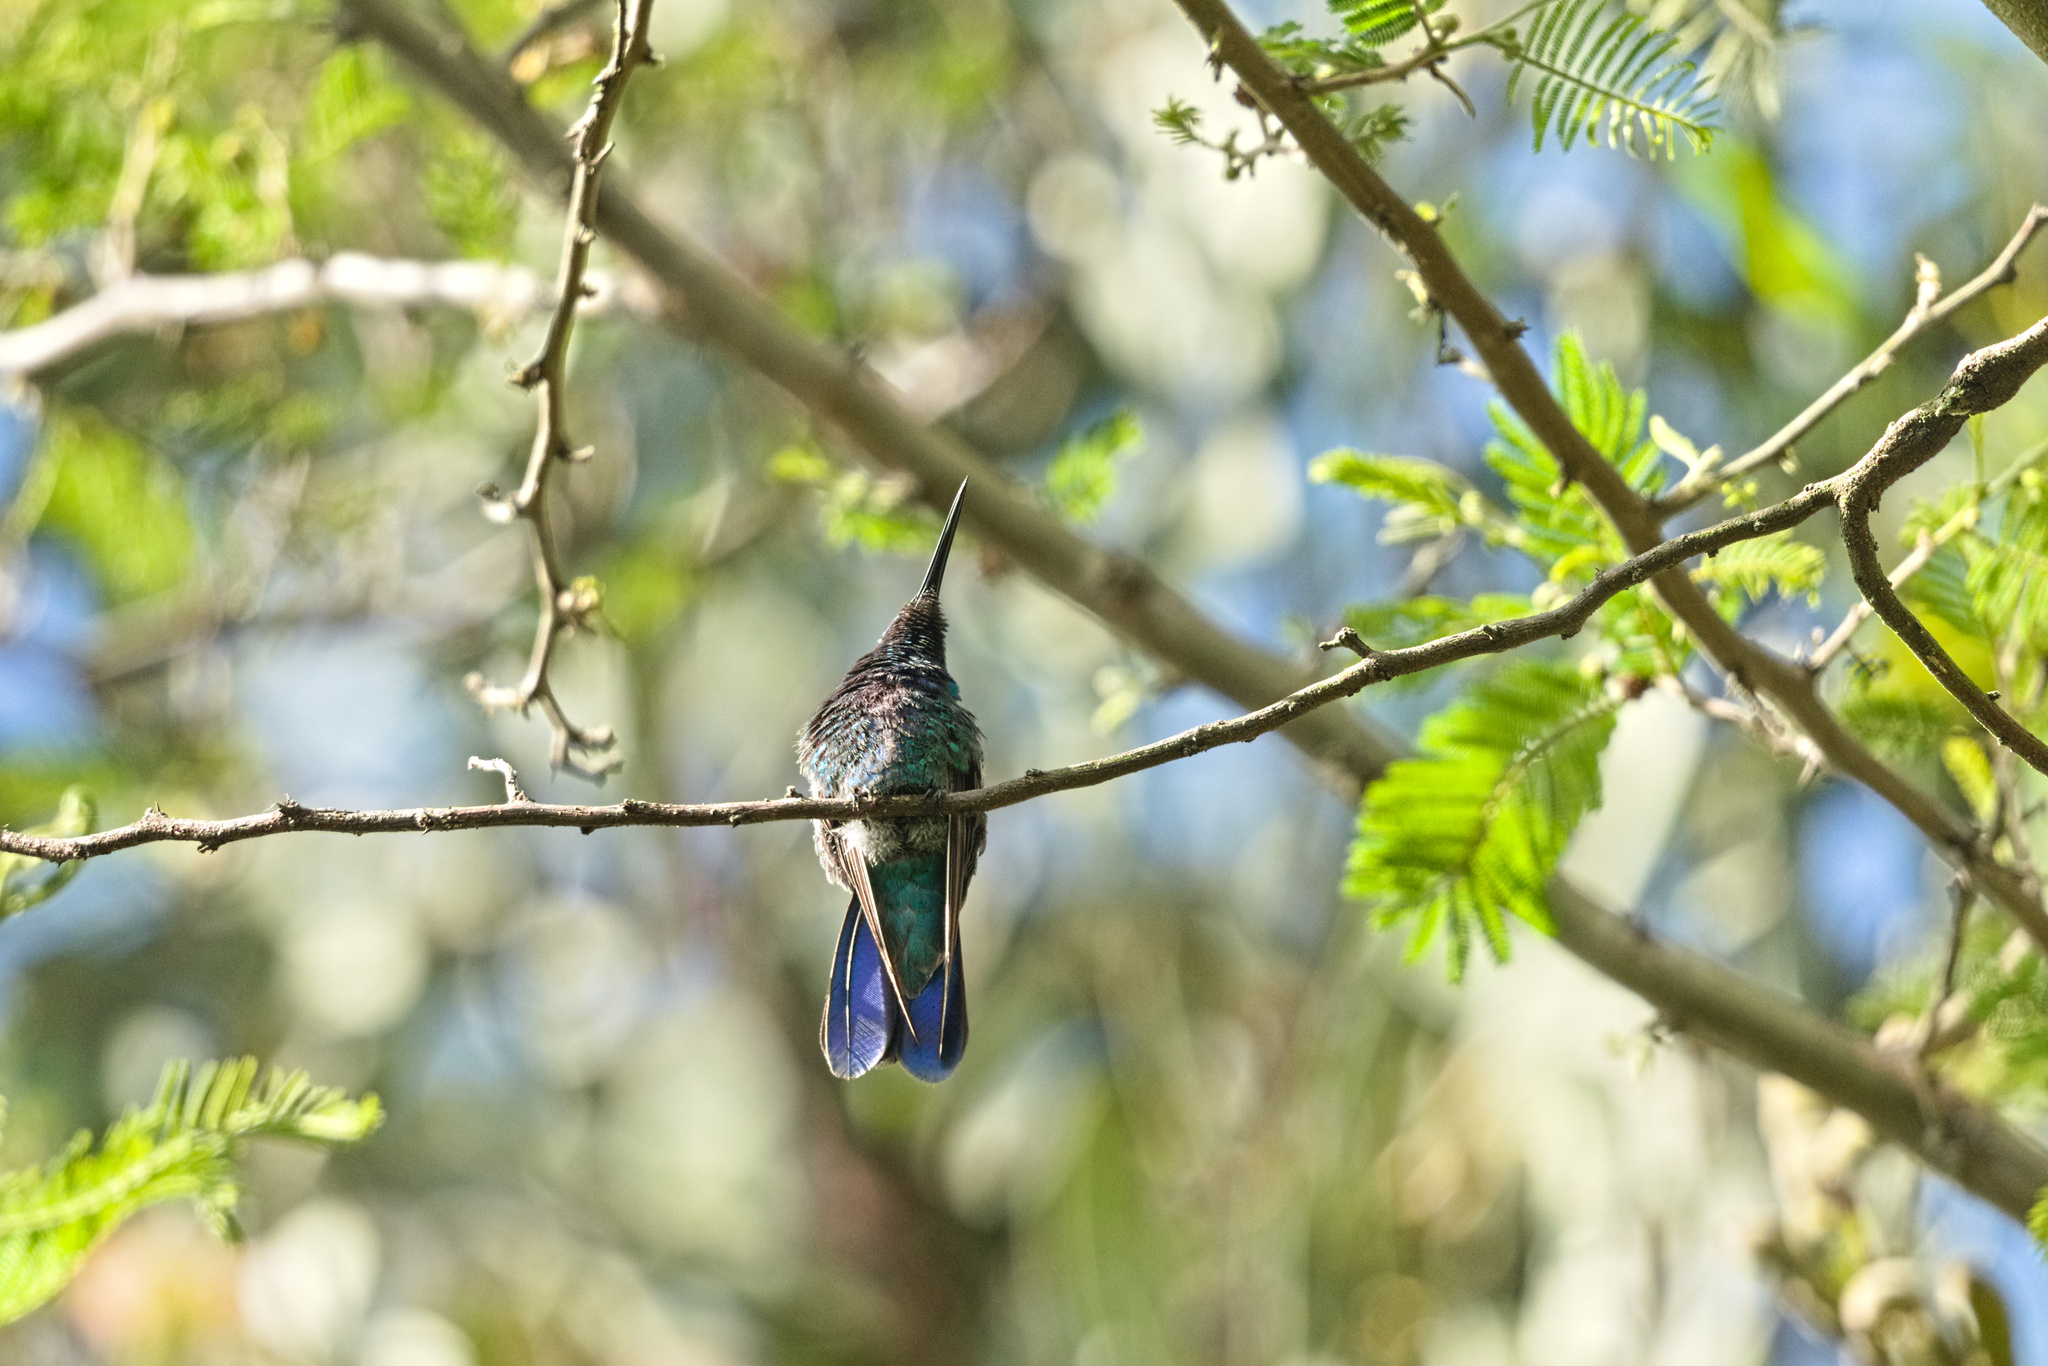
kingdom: Animalia
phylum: Chordata
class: Aves
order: Apodiformes
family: Trochilidae
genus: Colibri
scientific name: Colibri coruscans
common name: Sparkling violetear
